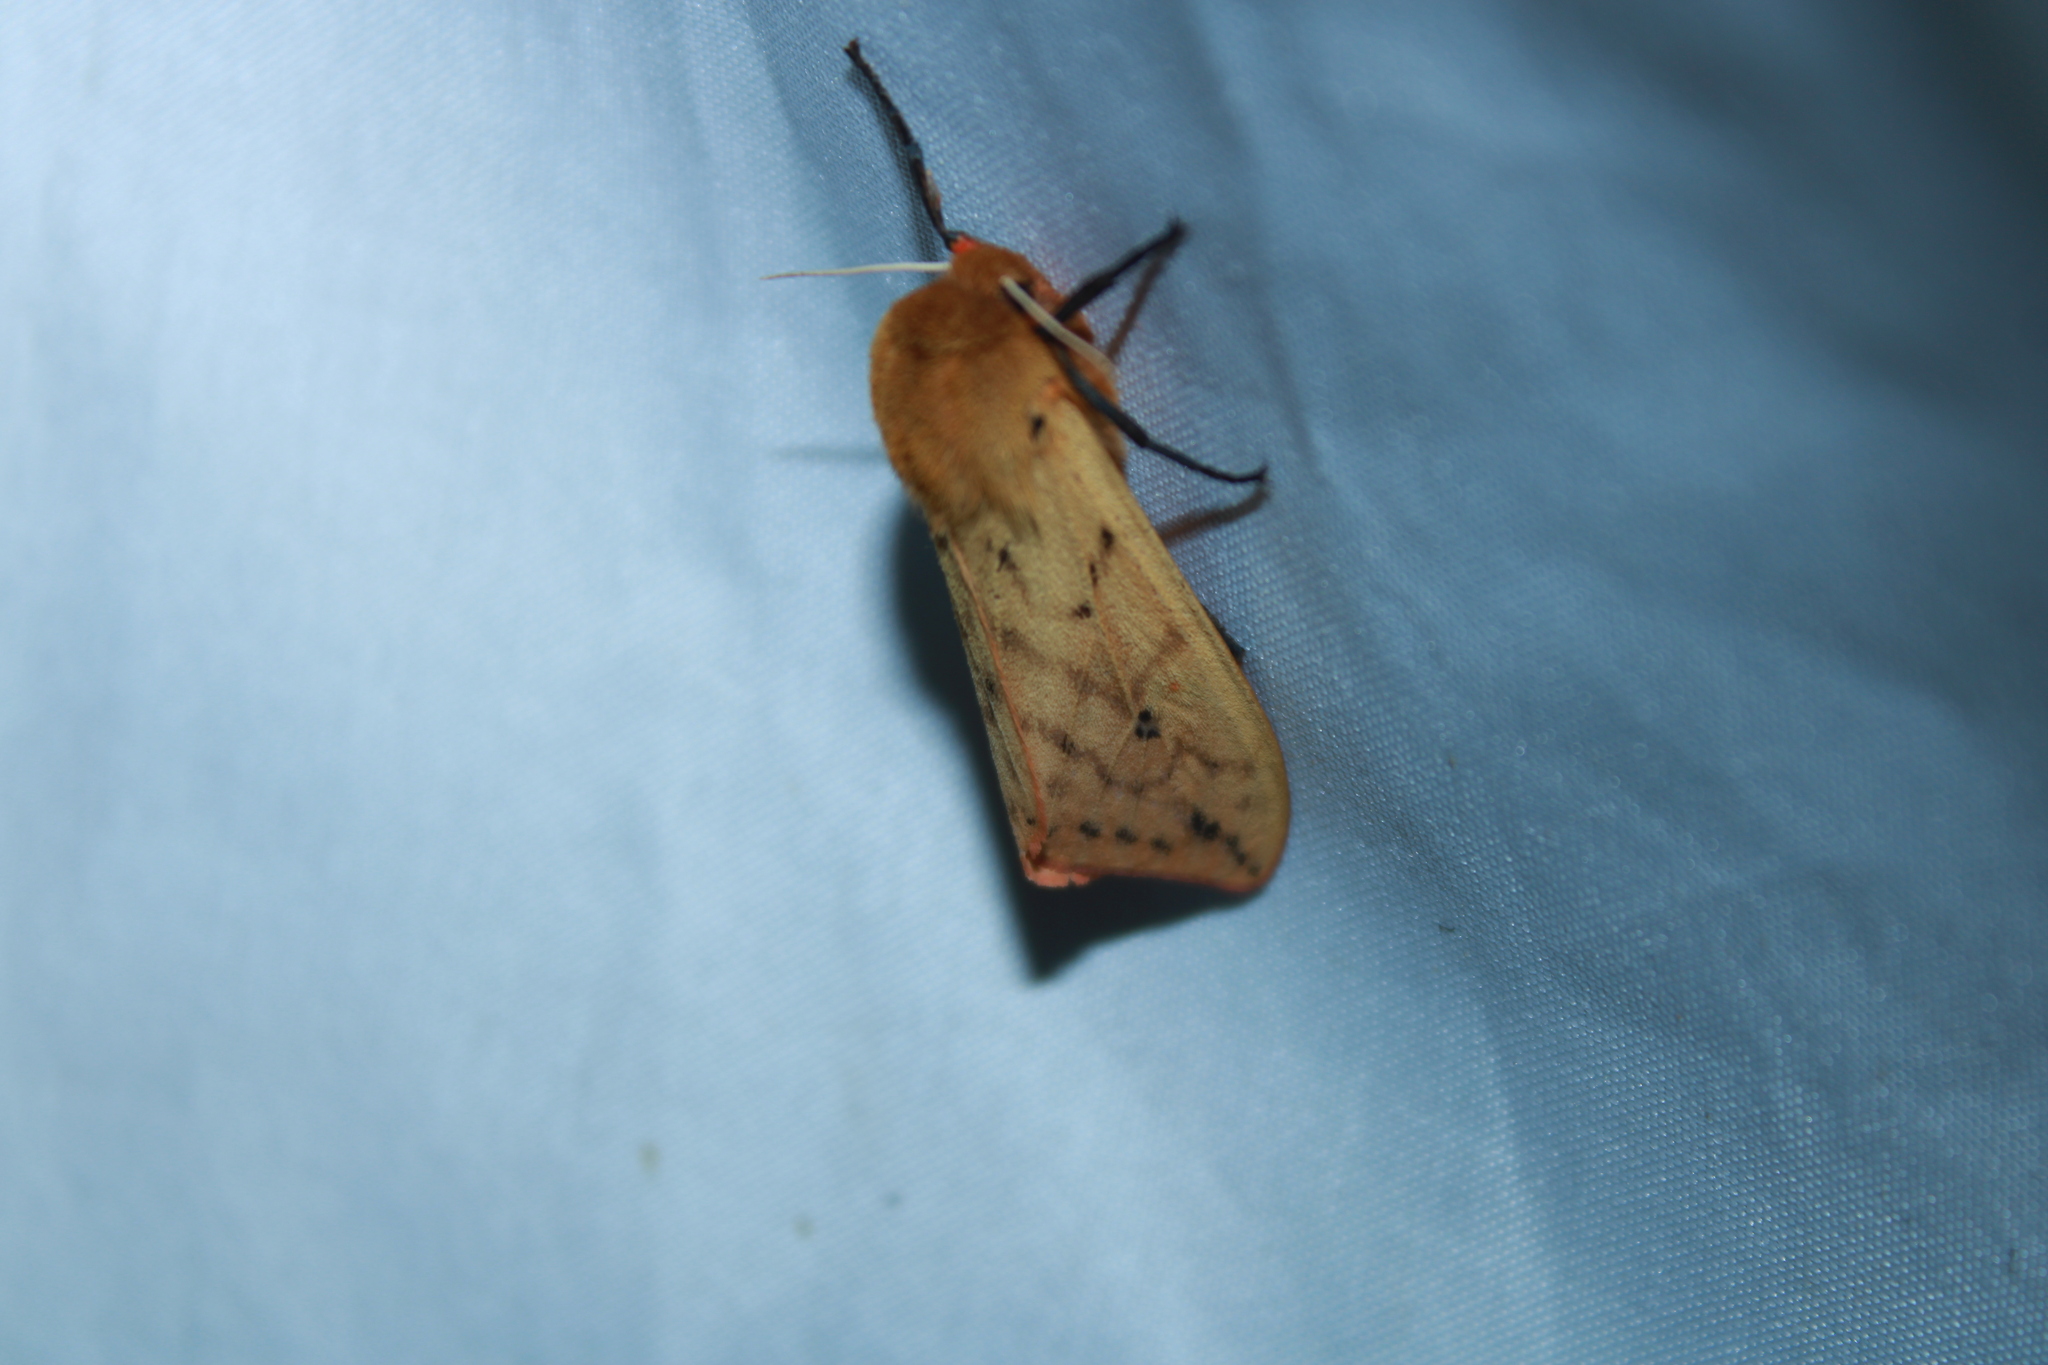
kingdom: Animalia
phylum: Arthropoda
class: Insecta
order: Lepidoptera
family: Erebidae
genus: Pyrrharctia
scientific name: Pyrrharctia isabella
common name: Isabella tiger moth
